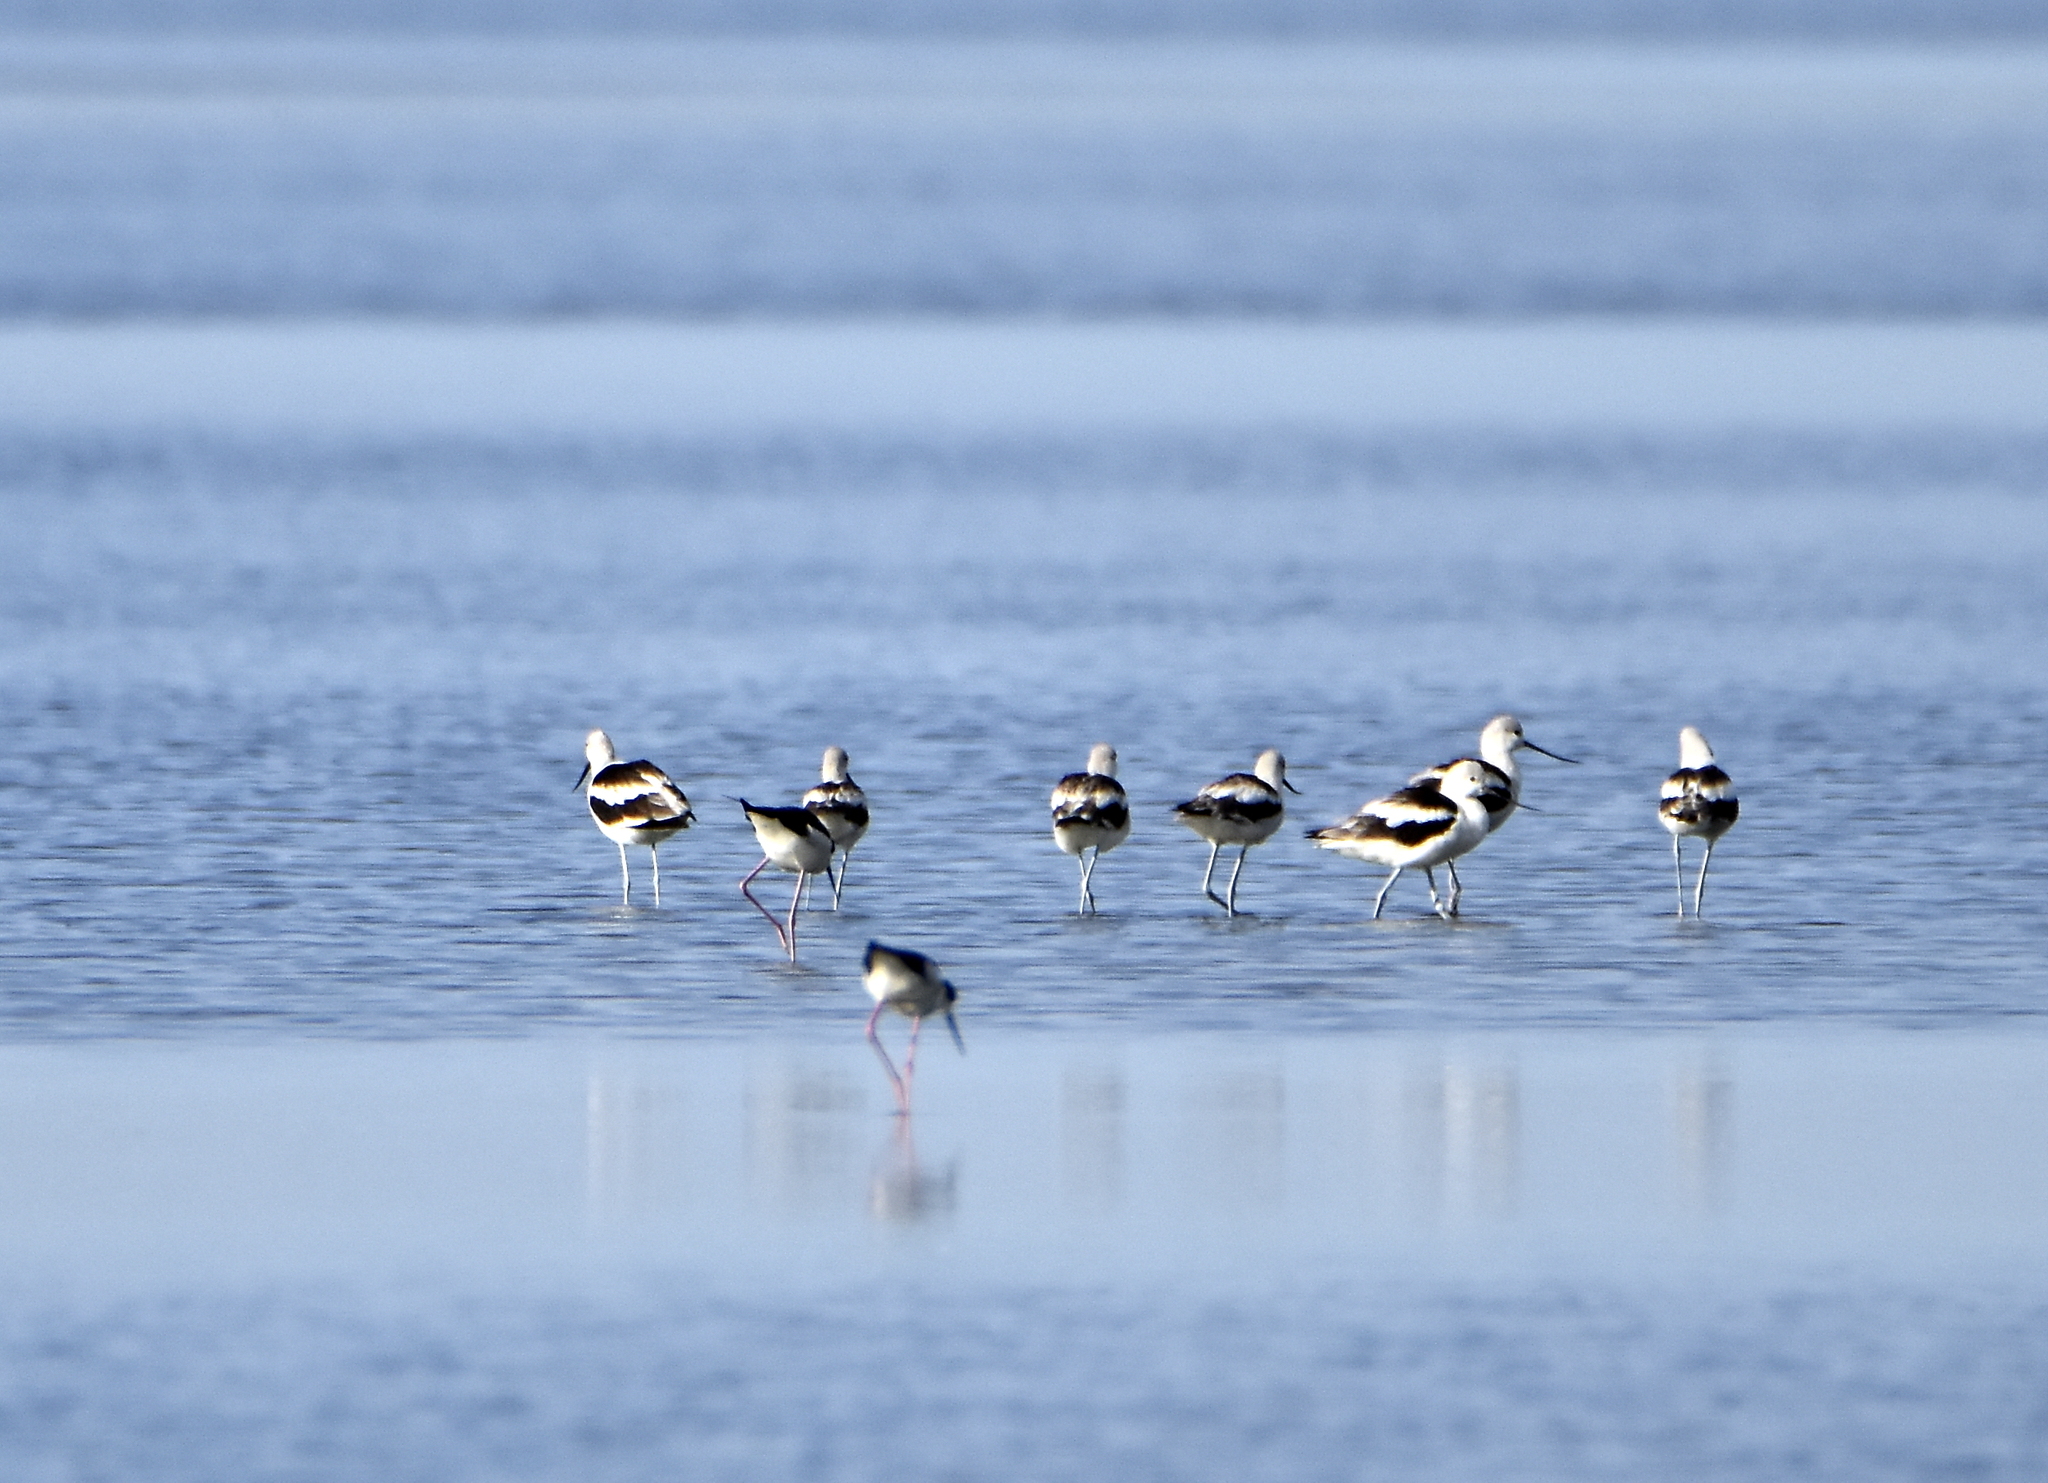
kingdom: Animalia
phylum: Chordata
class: Aves
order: Charadriiformes
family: Recurvirostridae
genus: Recurvirostra
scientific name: Recurvirostra americana
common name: American avocet
